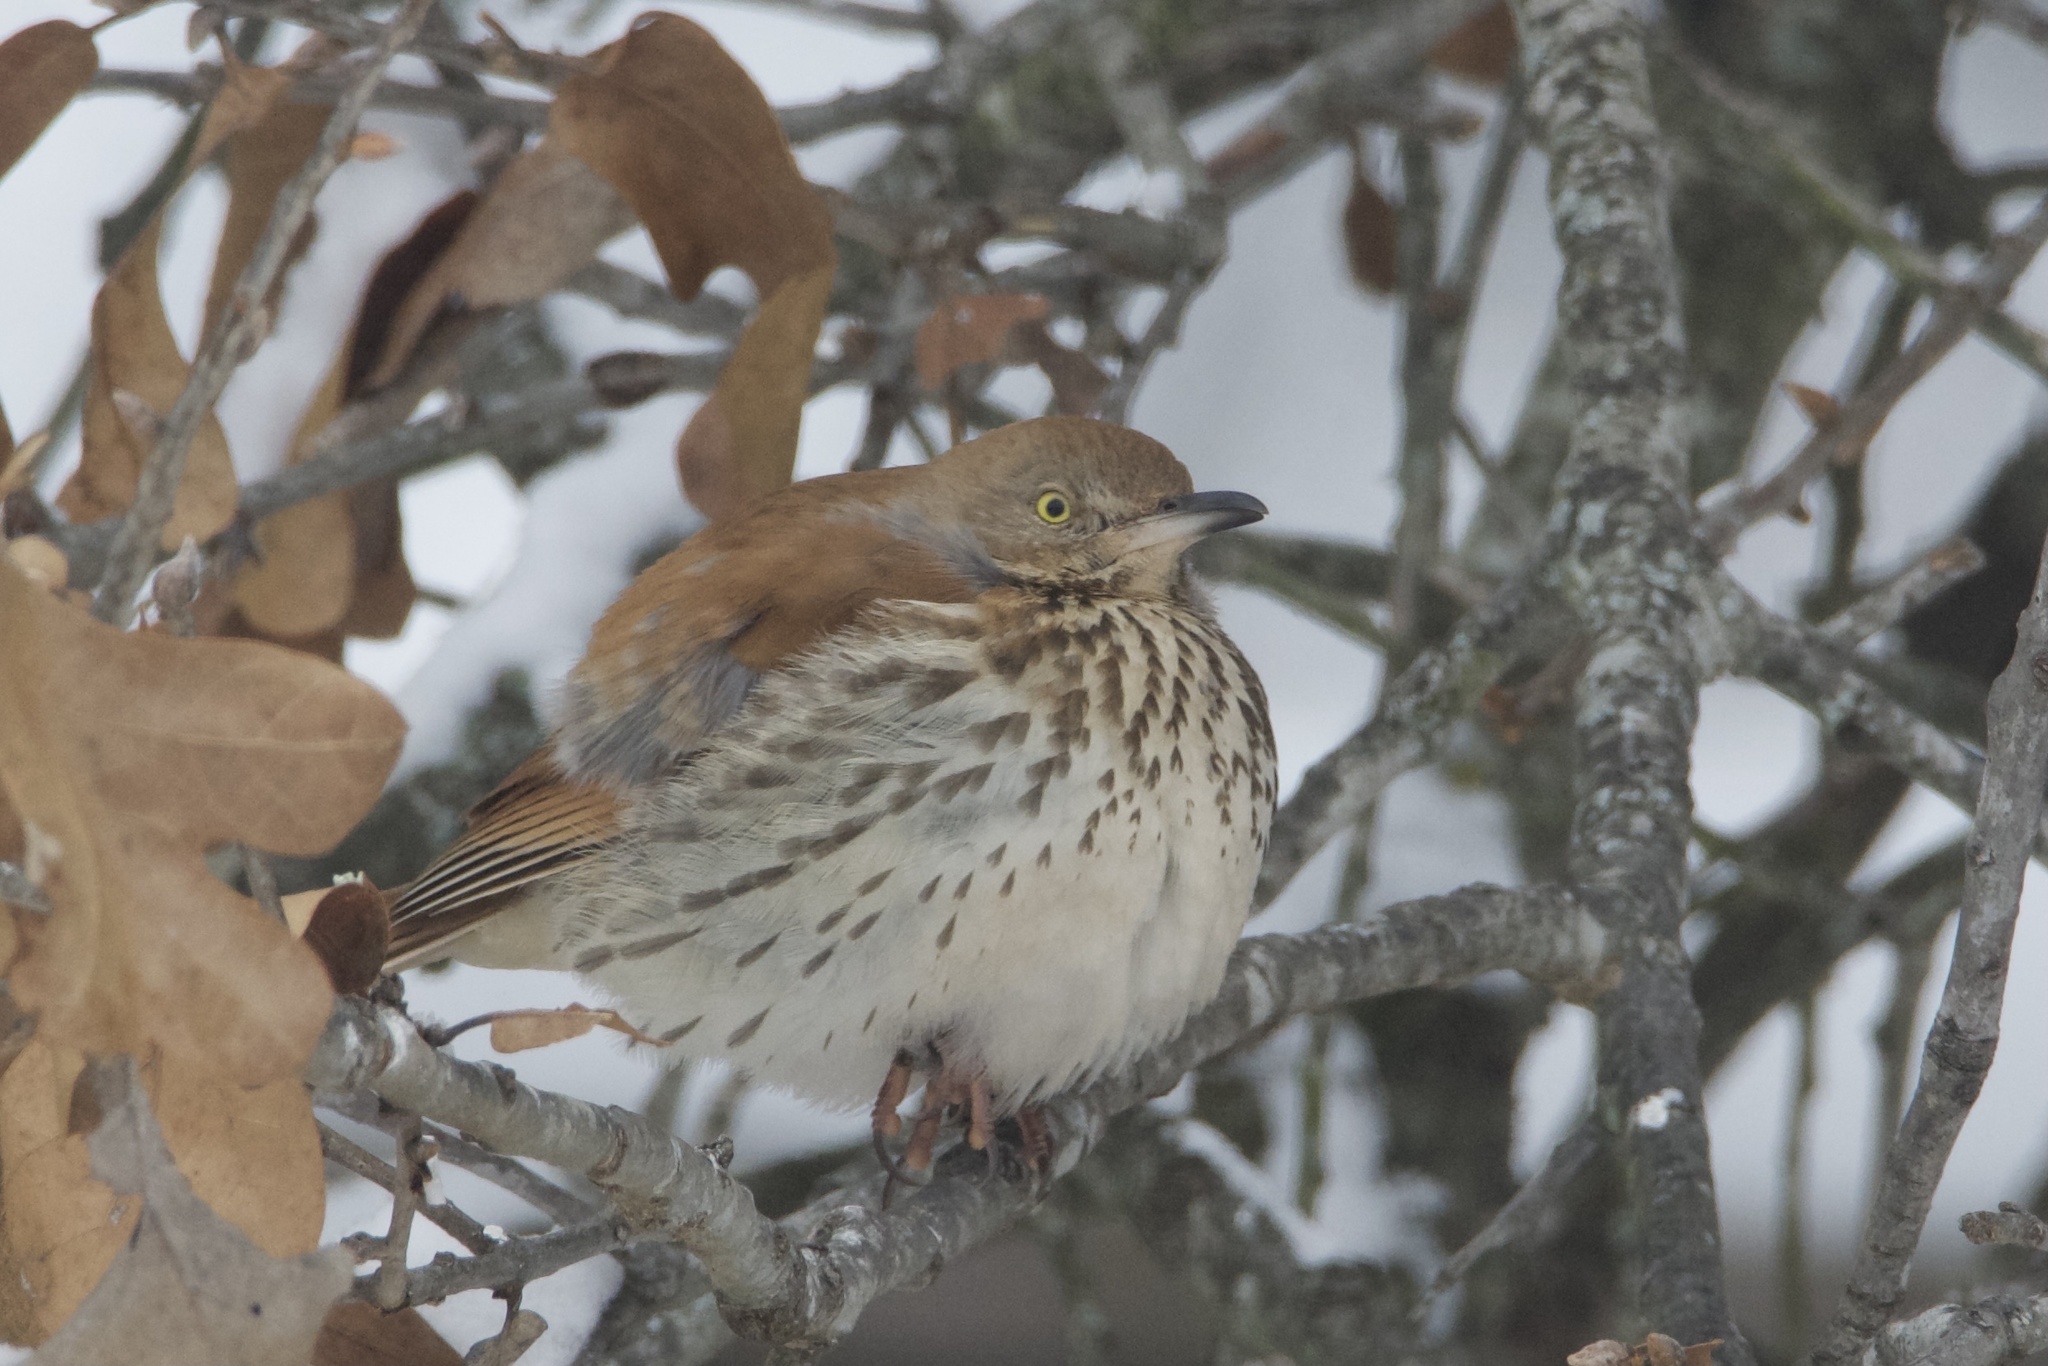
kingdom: Animalia
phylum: Chordata
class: Aves
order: Passeriformes
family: Mimidae
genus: Toxostoma
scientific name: Toxostoma rufum
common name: Brown thrasher
